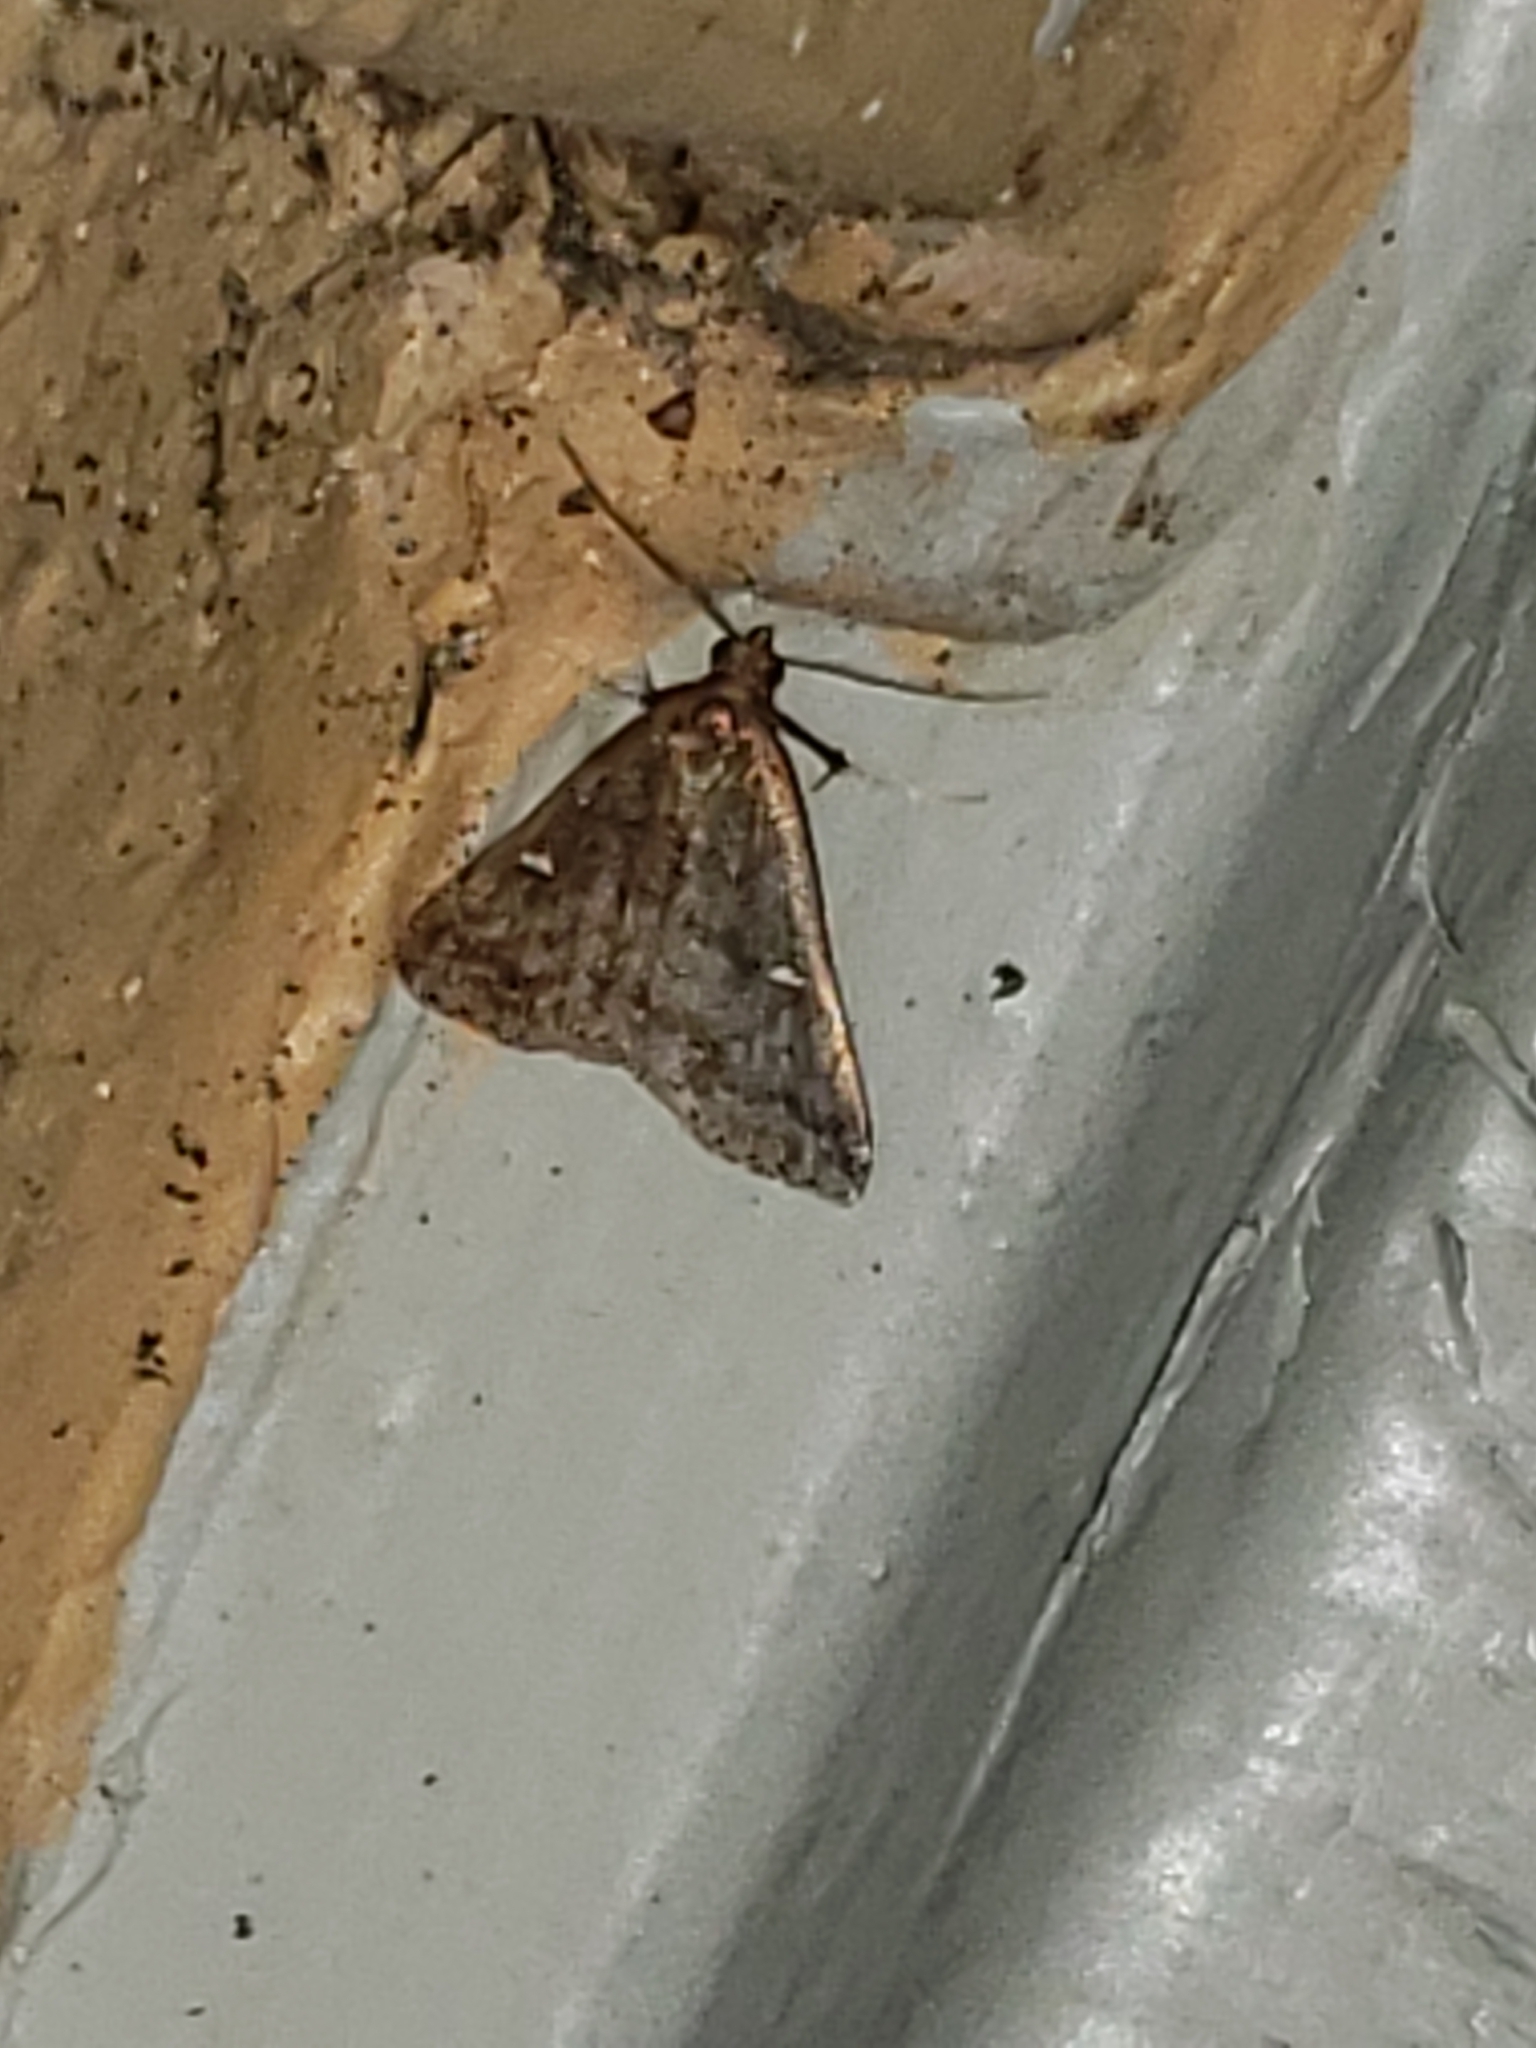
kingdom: Animalia
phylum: Arthropoda
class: Insecta
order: Lepidoptera
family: Erebidae
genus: Tetanolita
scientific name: Tetanolita mynesalis
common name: Smoky tetanolita moth
